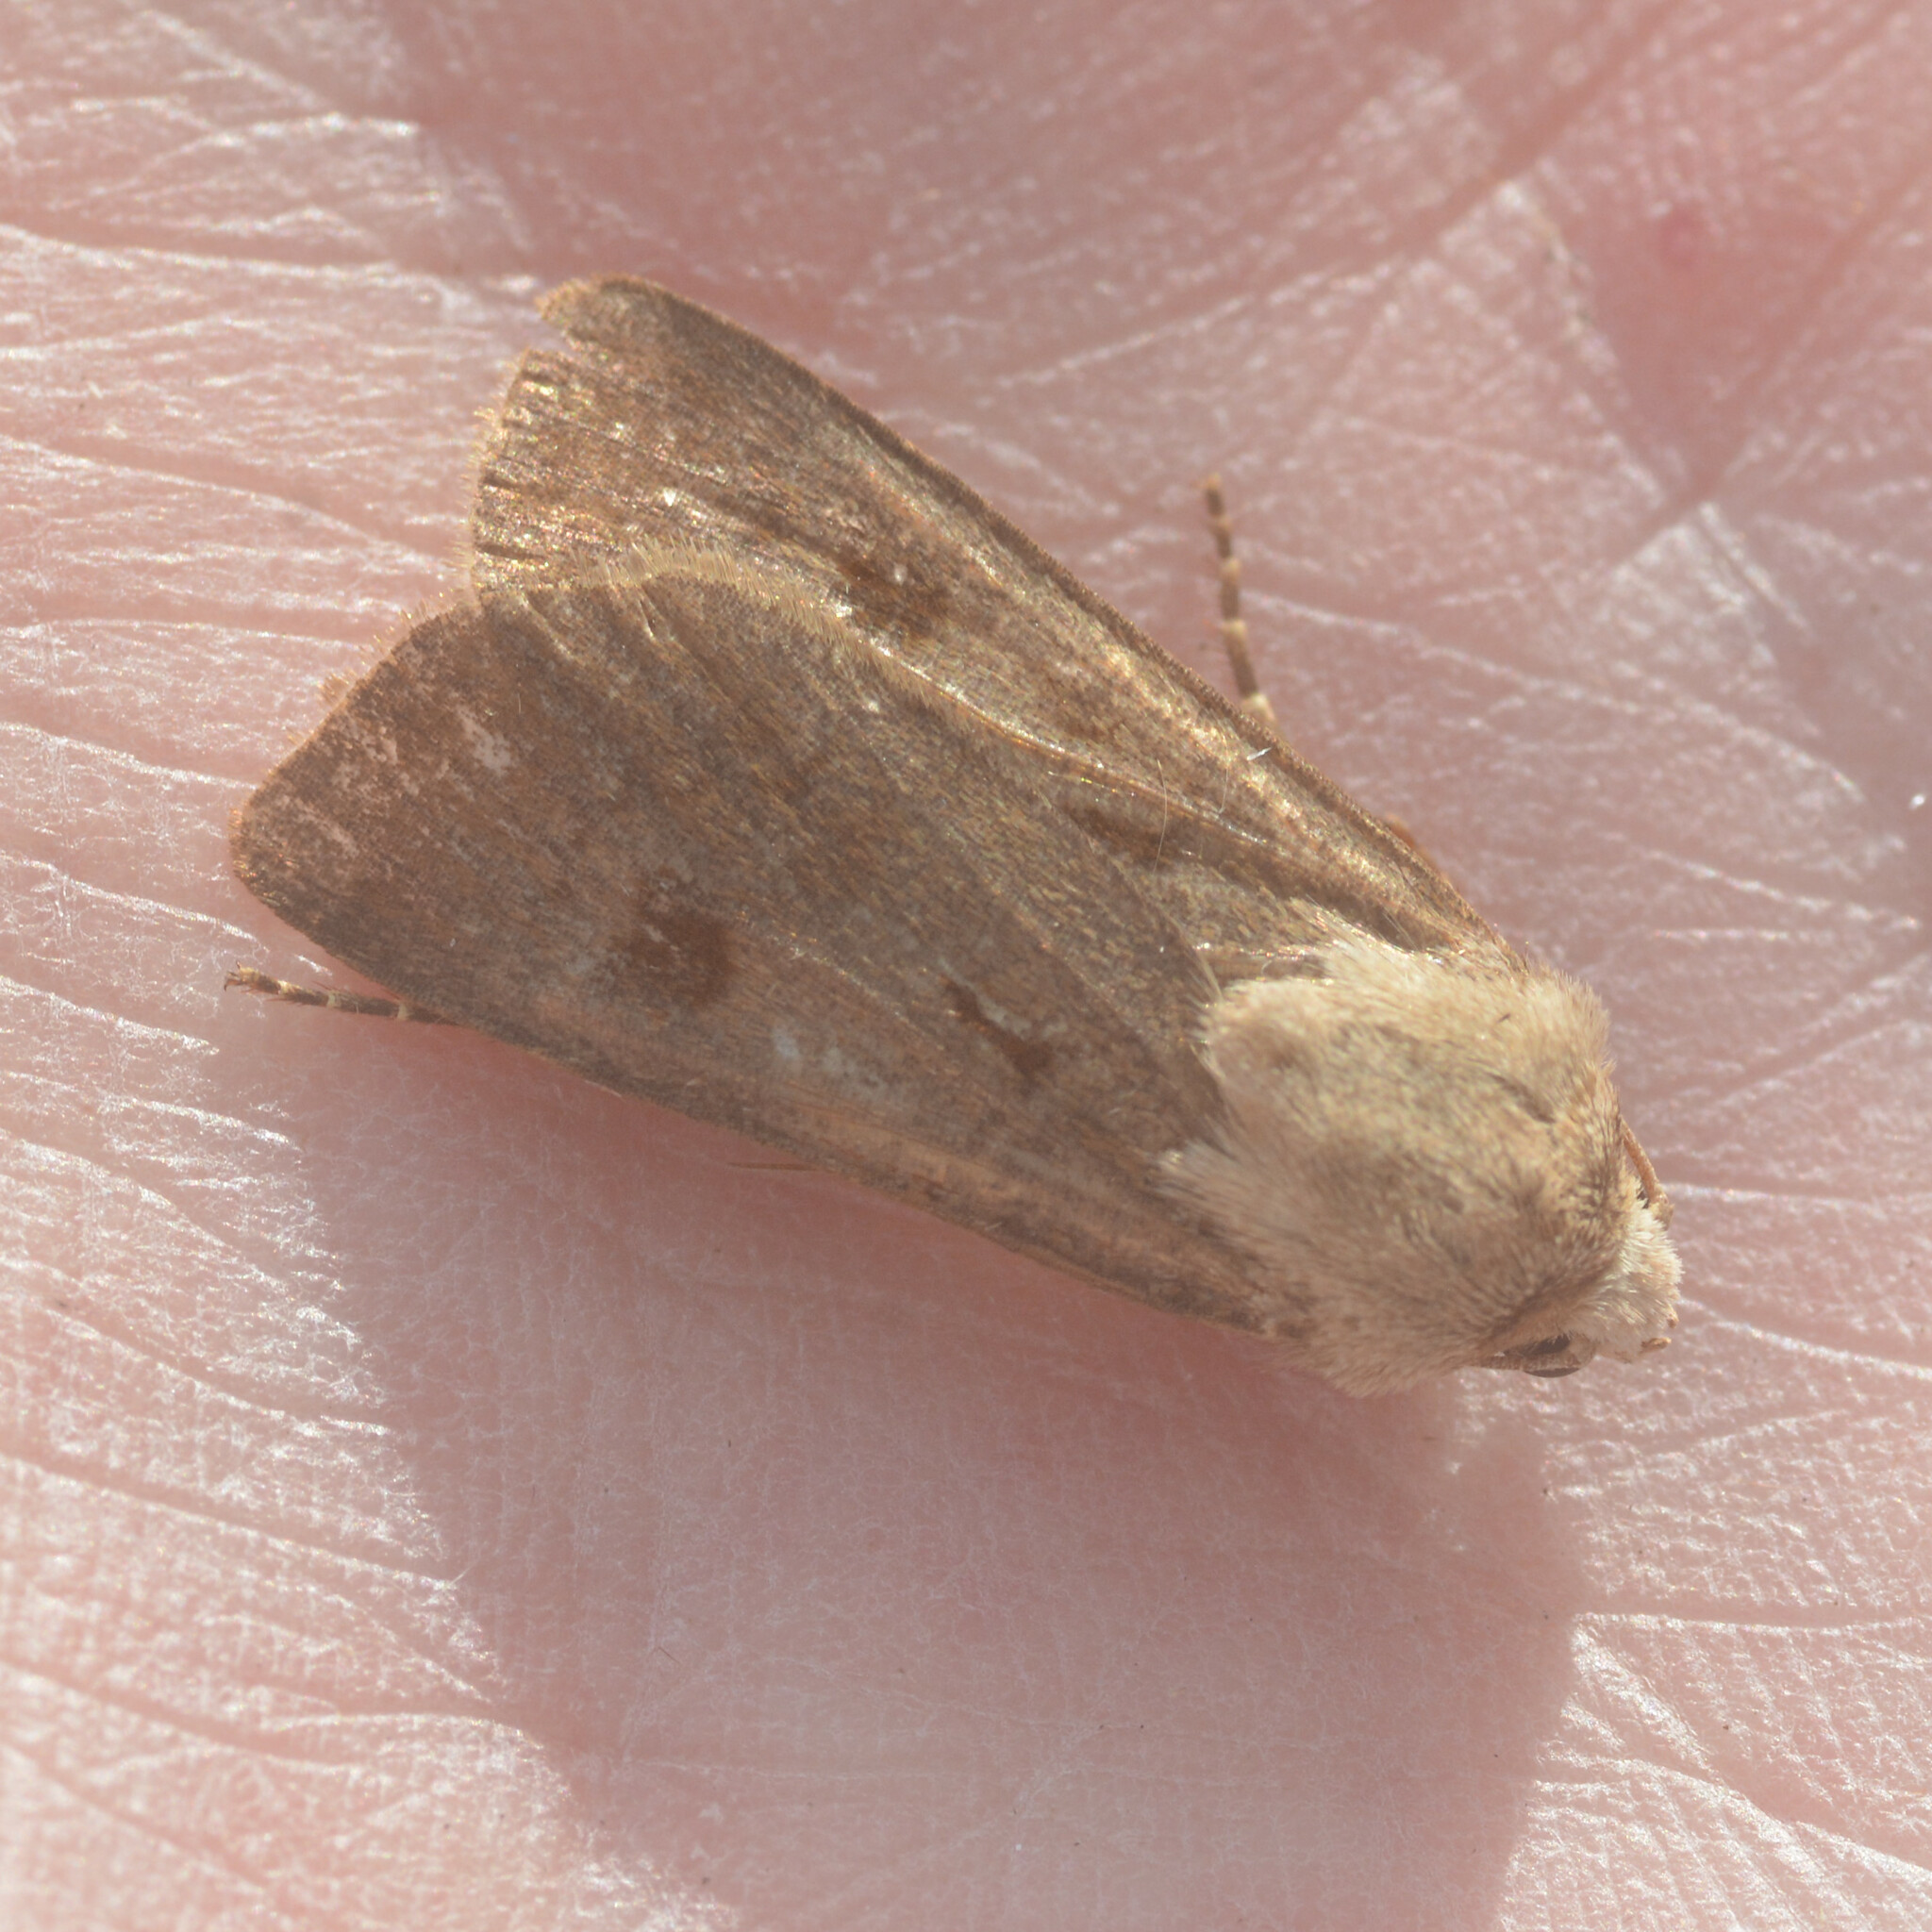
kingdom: Animalia
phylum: Arthropoda
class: Insecta
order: Lepidoptera
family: Noctuidae
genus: Agrotis
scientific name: Agrotis exclamationis
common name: Heart and dart
